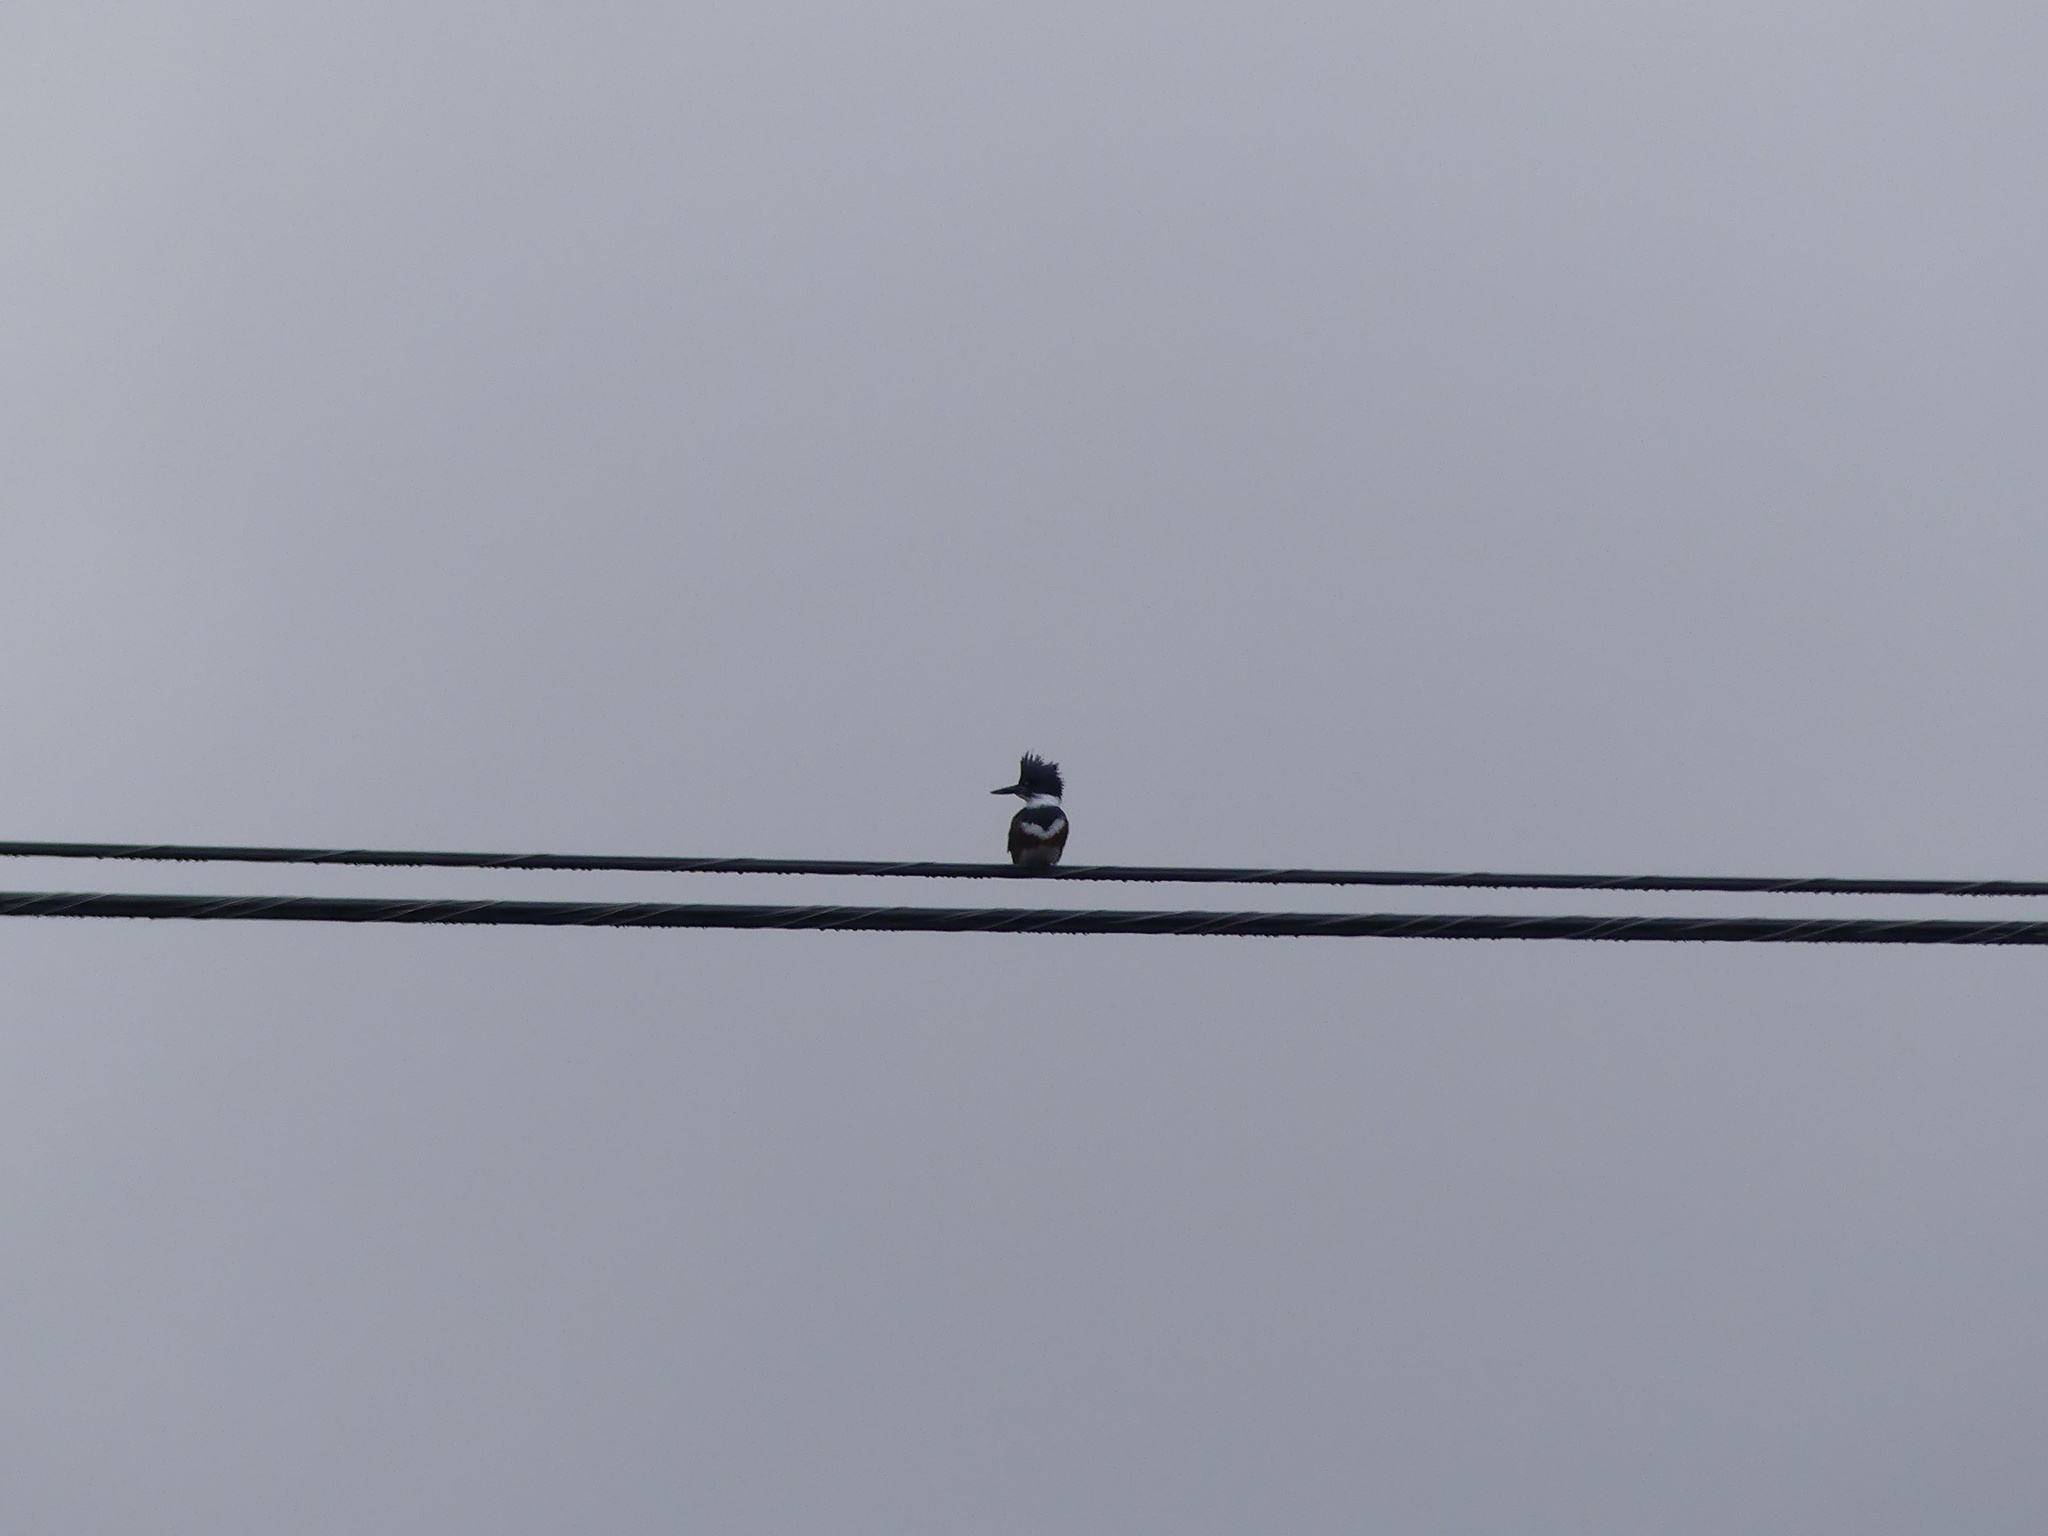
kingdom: Animalia
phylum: Chordata
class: Aves
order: Coraciiformes
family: Alcedinidae
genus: Megaceryle
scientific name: Megaceryle alcyon
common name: Belted kingfisher
